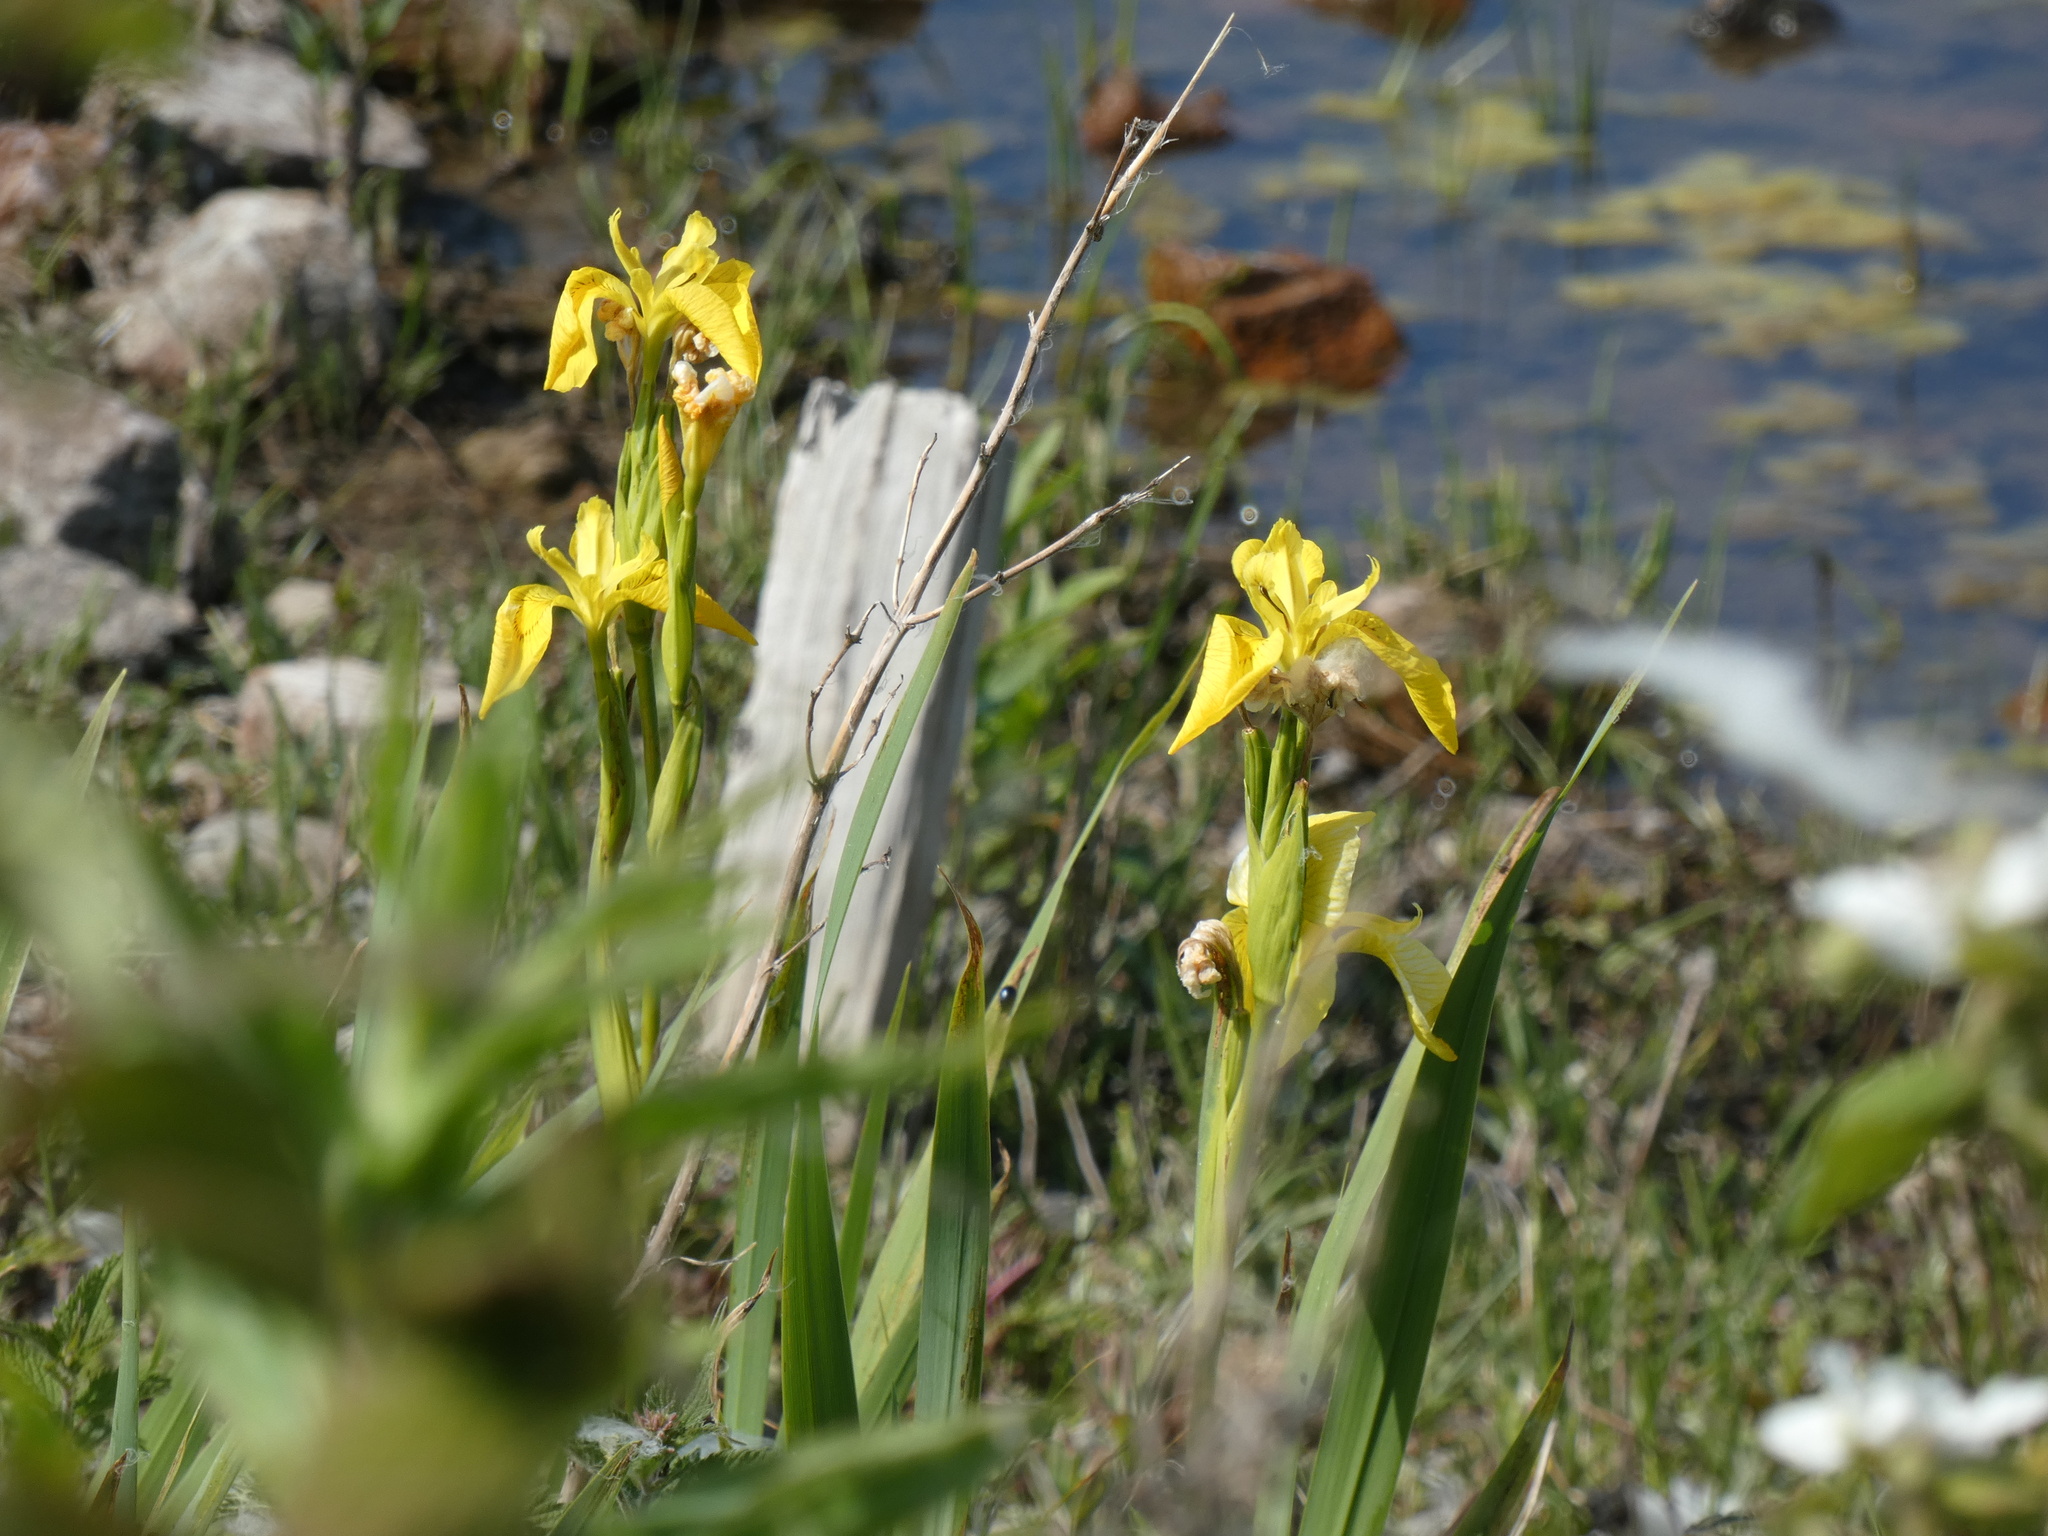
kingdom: Plantae
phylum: Tracheophyta
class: Liliopsida
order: Asparagales
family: Iridaceae
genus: Iris
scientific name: Iris pseudacorus
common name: Yellow flag
